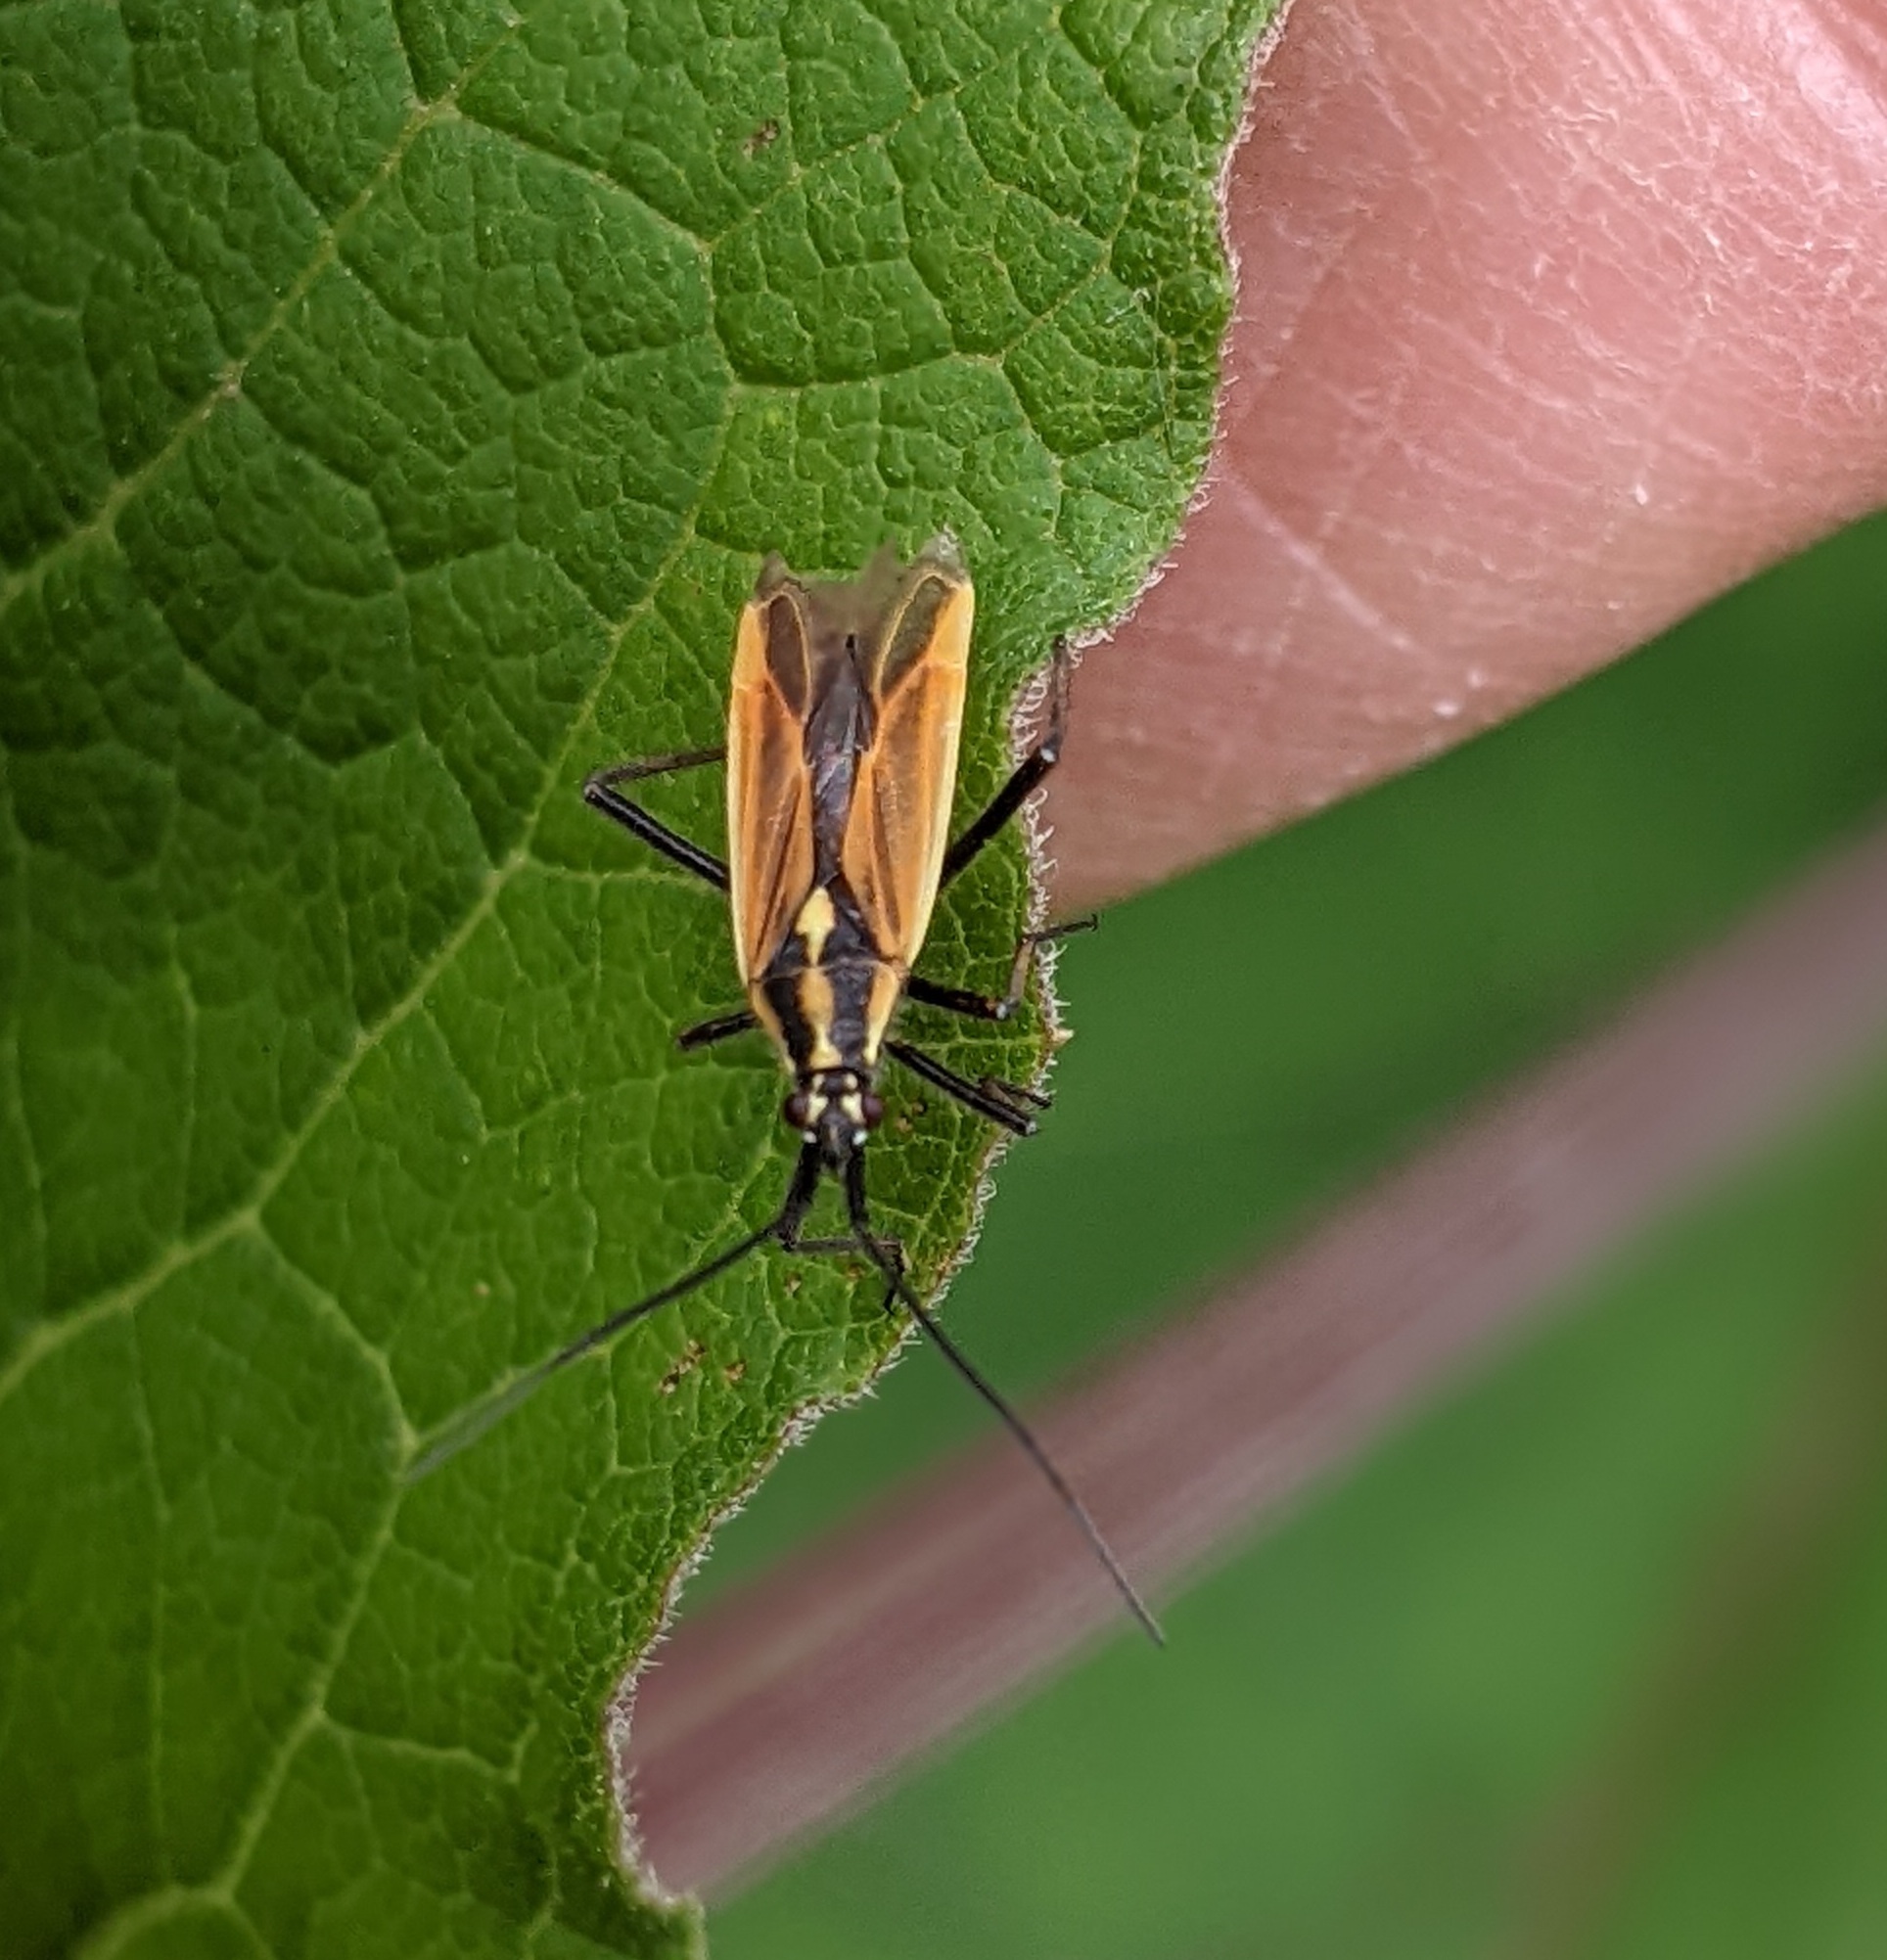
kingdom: Animalia
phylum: Arthropoda
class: Insecta
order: Hemiptera
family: Miridae
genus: Leptopterna
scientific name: Leptopterna dolabrata
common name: Meadow plant bug
